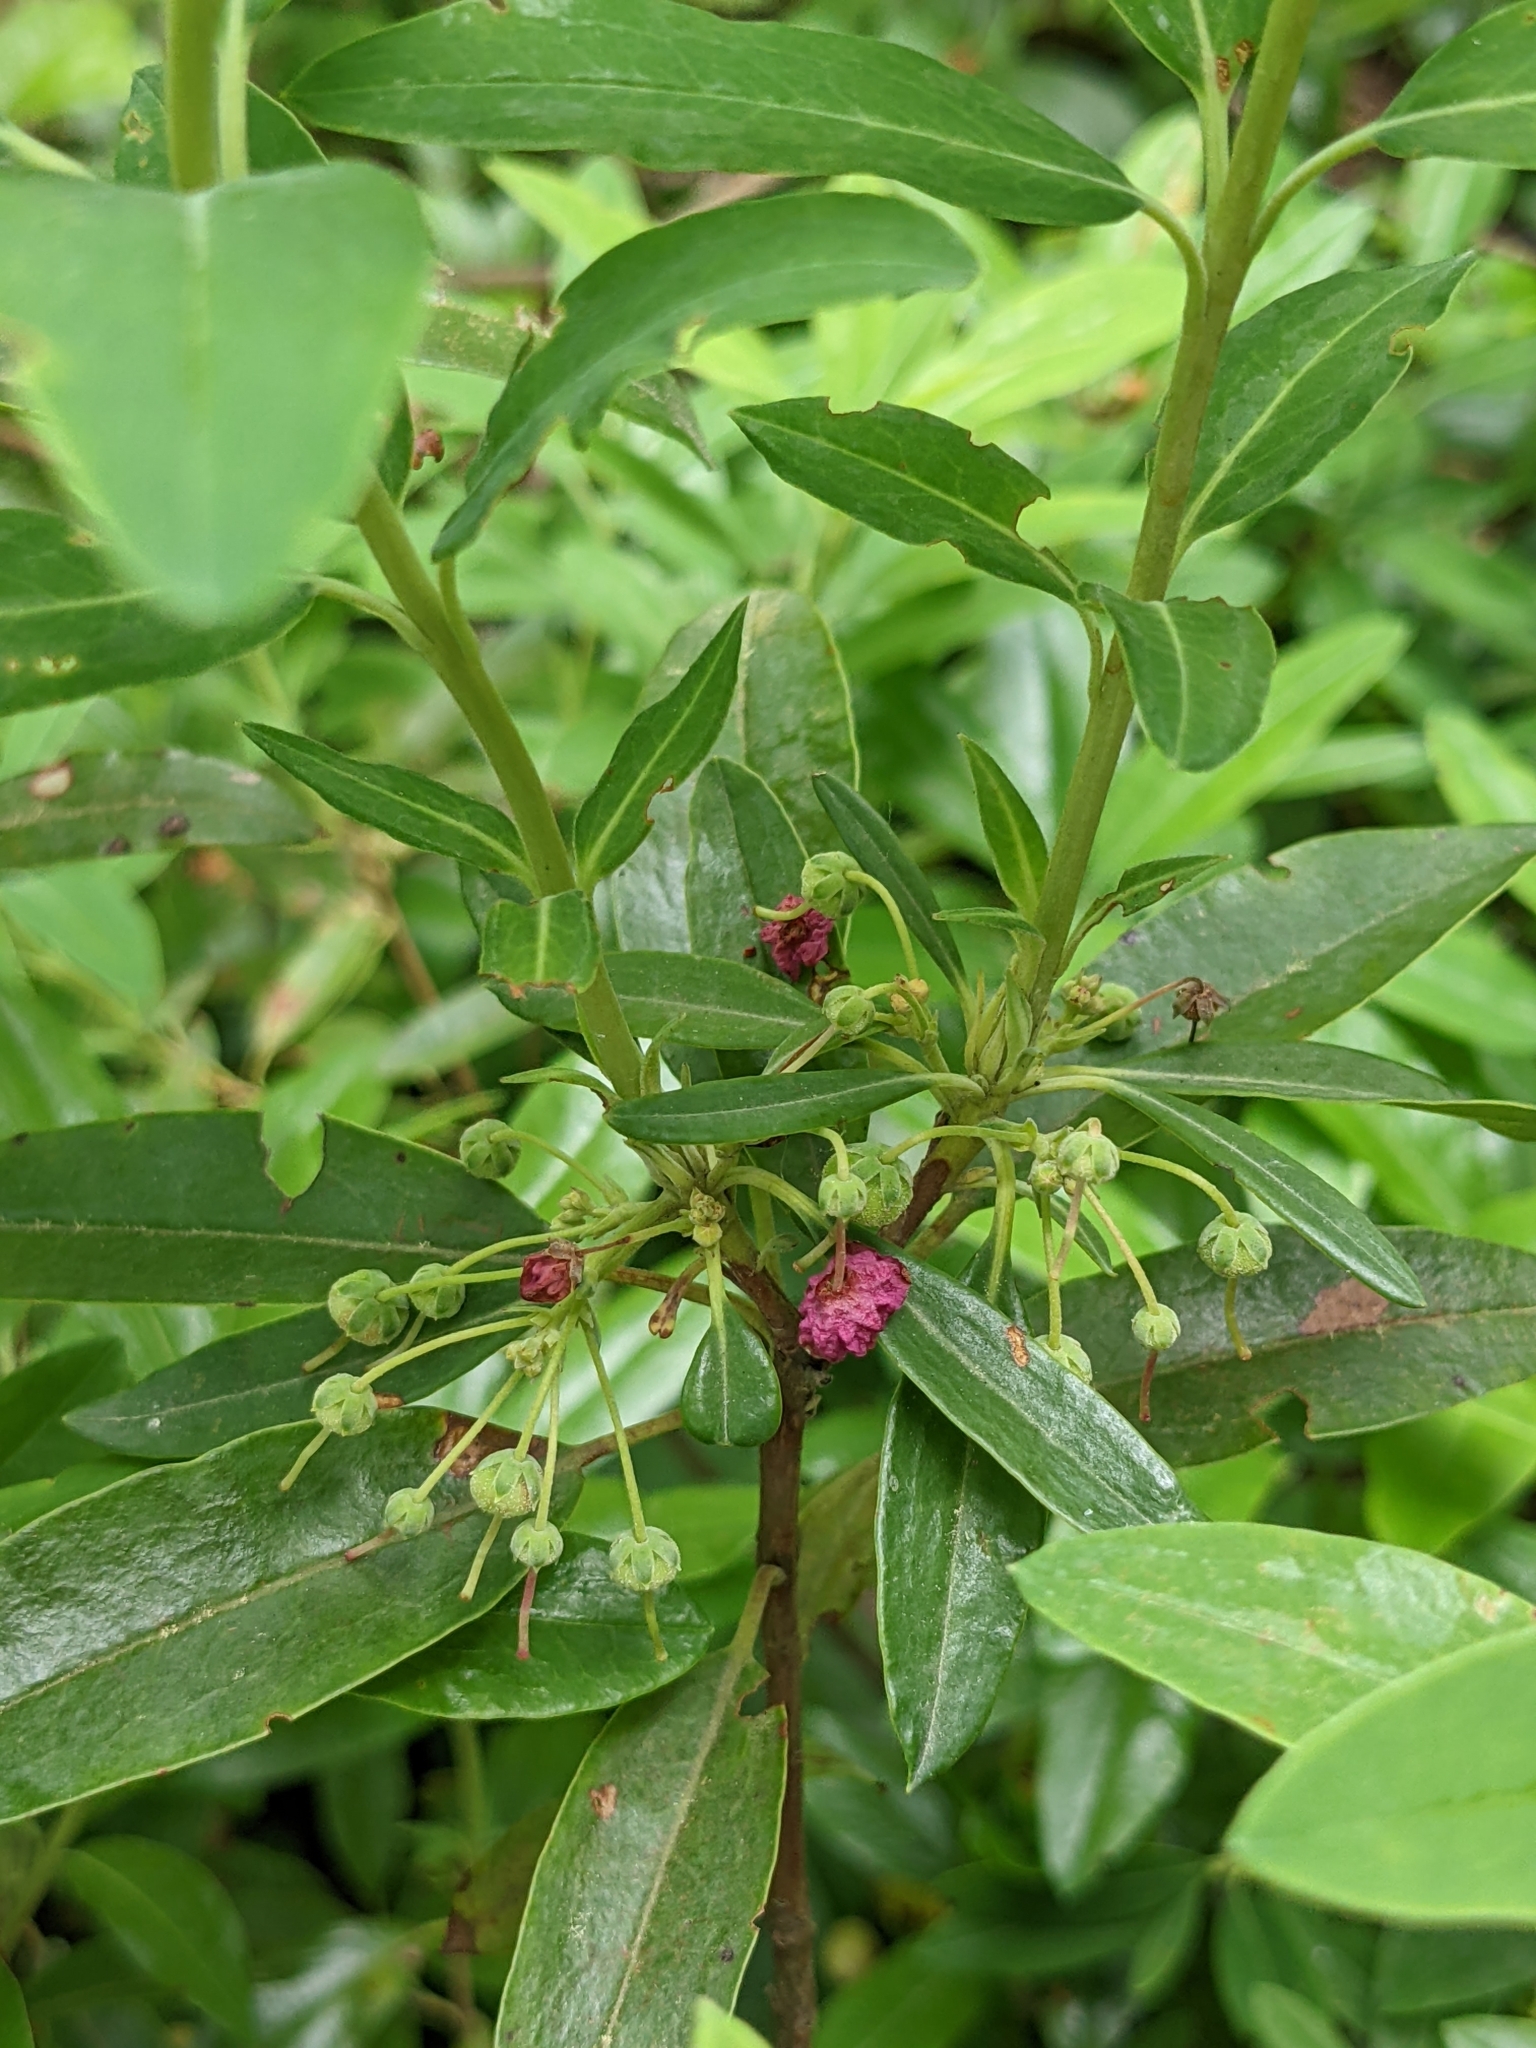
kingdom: Plantae
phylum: Tracheophyta
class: Magnoliopsida
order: Ericales
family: Ericaceae
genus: Kalmia
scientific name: Kalmia angustifolia
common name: Sheep-laurel
